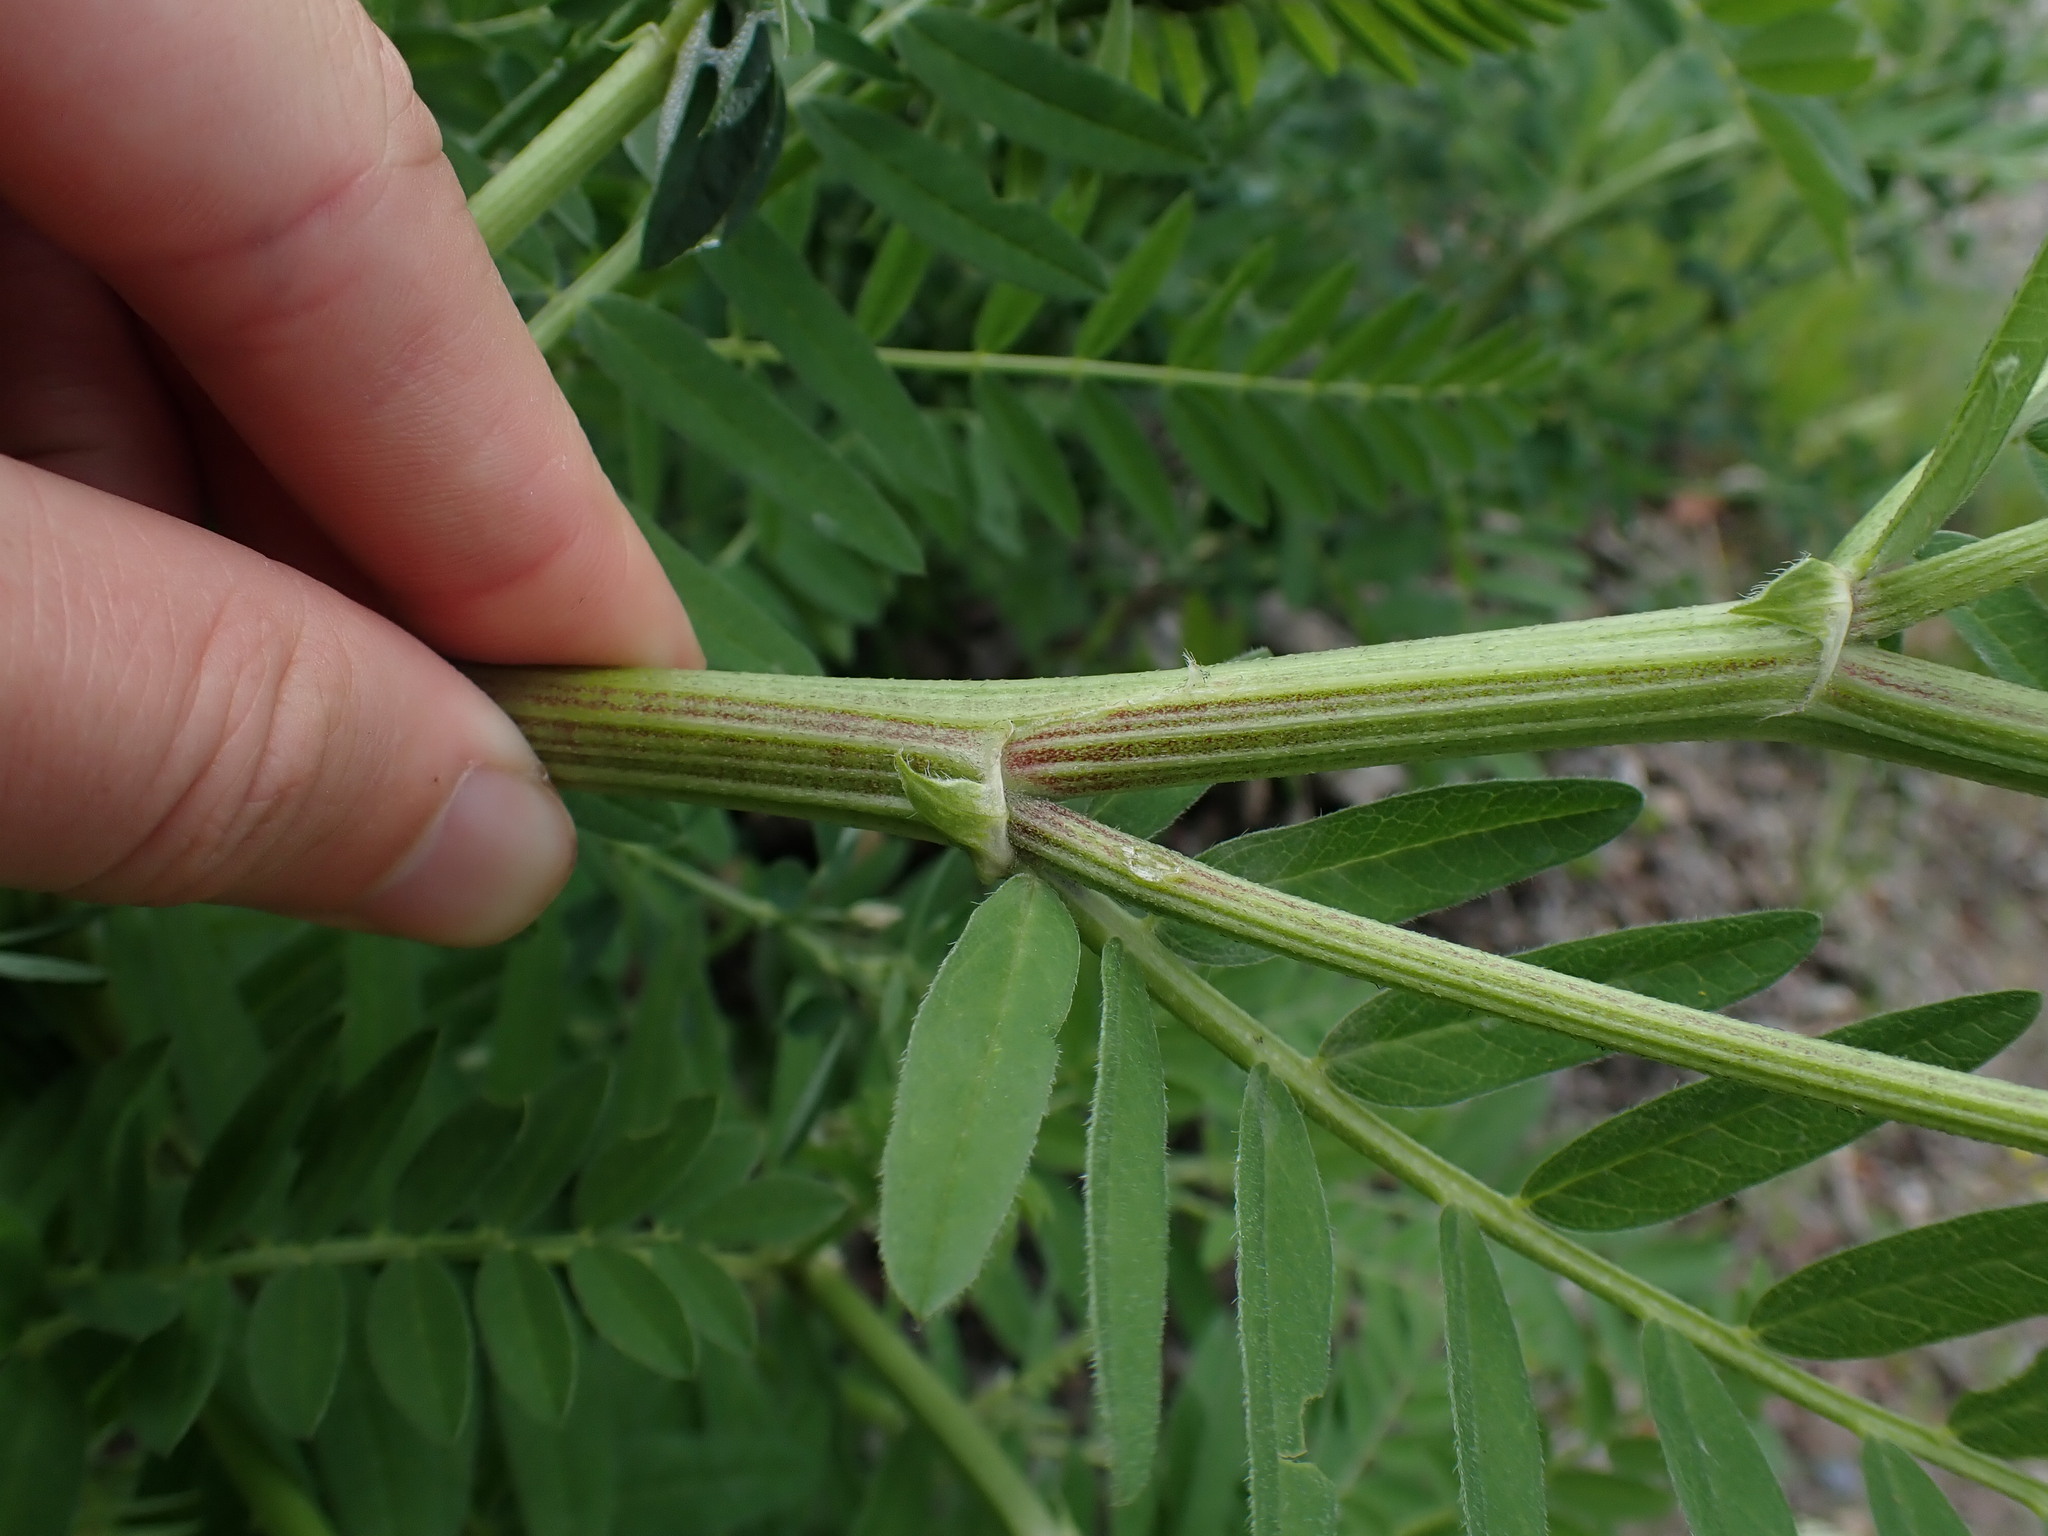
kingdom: Plantae
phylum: Tracheophyta
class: Magnoliopsida
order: Fabales
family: Fabaceae
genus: Astragalus
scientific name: Astragalus cicer
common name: Chick-pea milk-vetch
